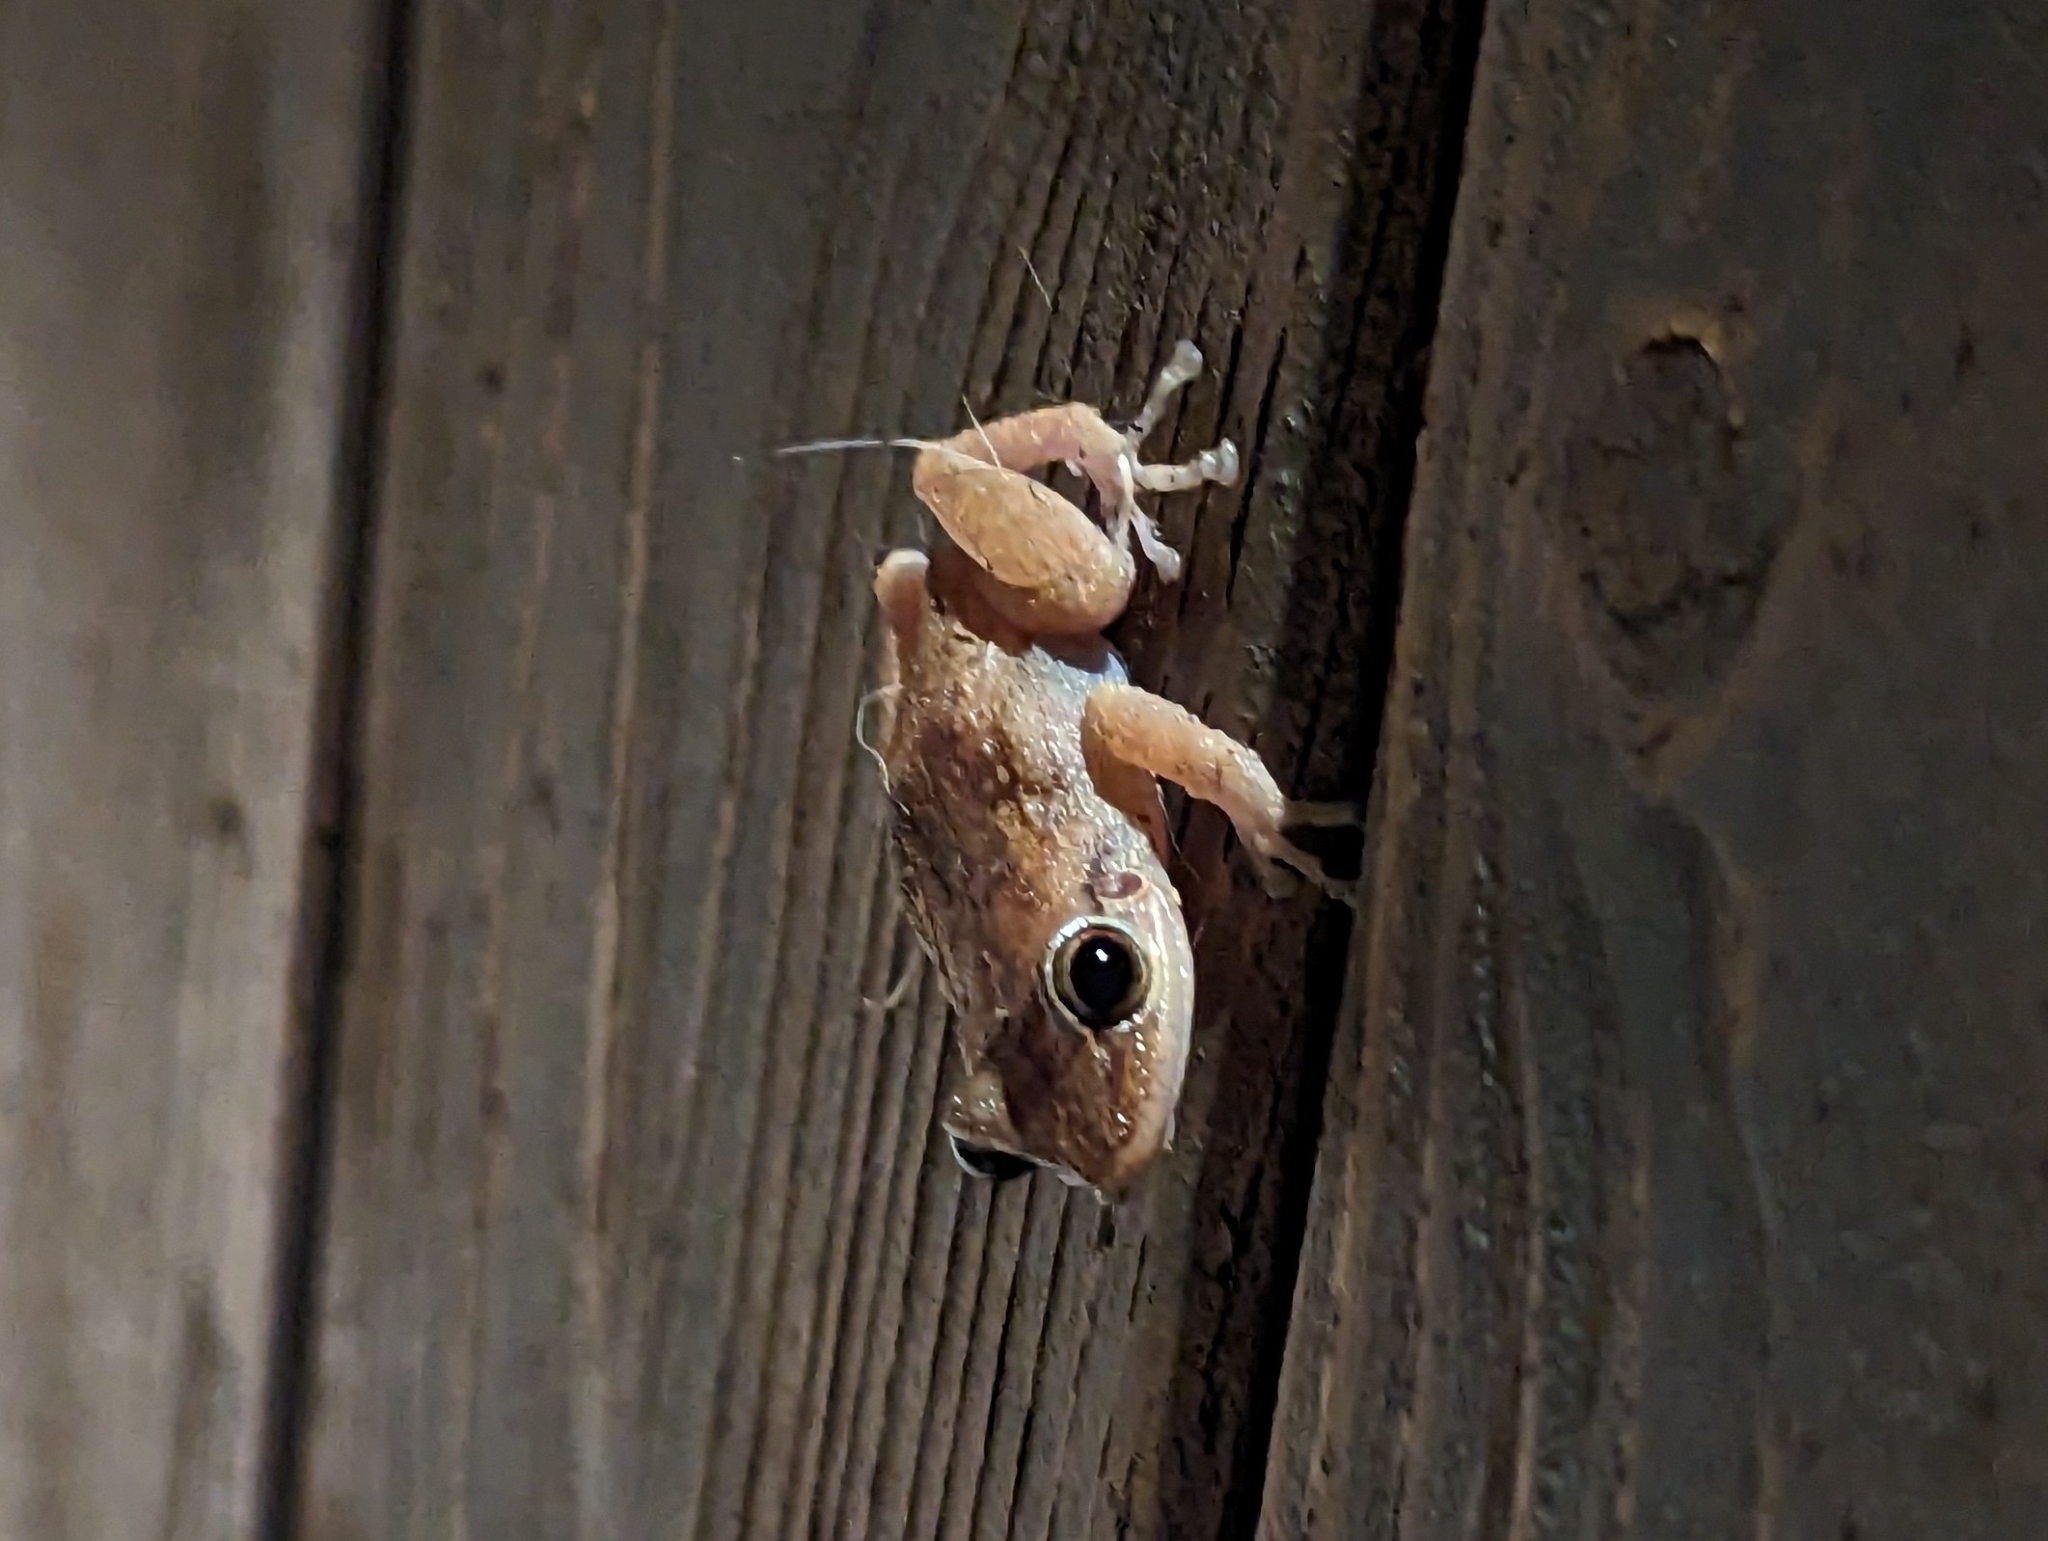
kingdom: Animalia
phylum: Chordata
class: Amphibia
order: Anura
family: Eleutherodactylidae
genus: Eleutherodactylus
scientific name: Eleutherodactylus coqui
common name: Coqui frog
